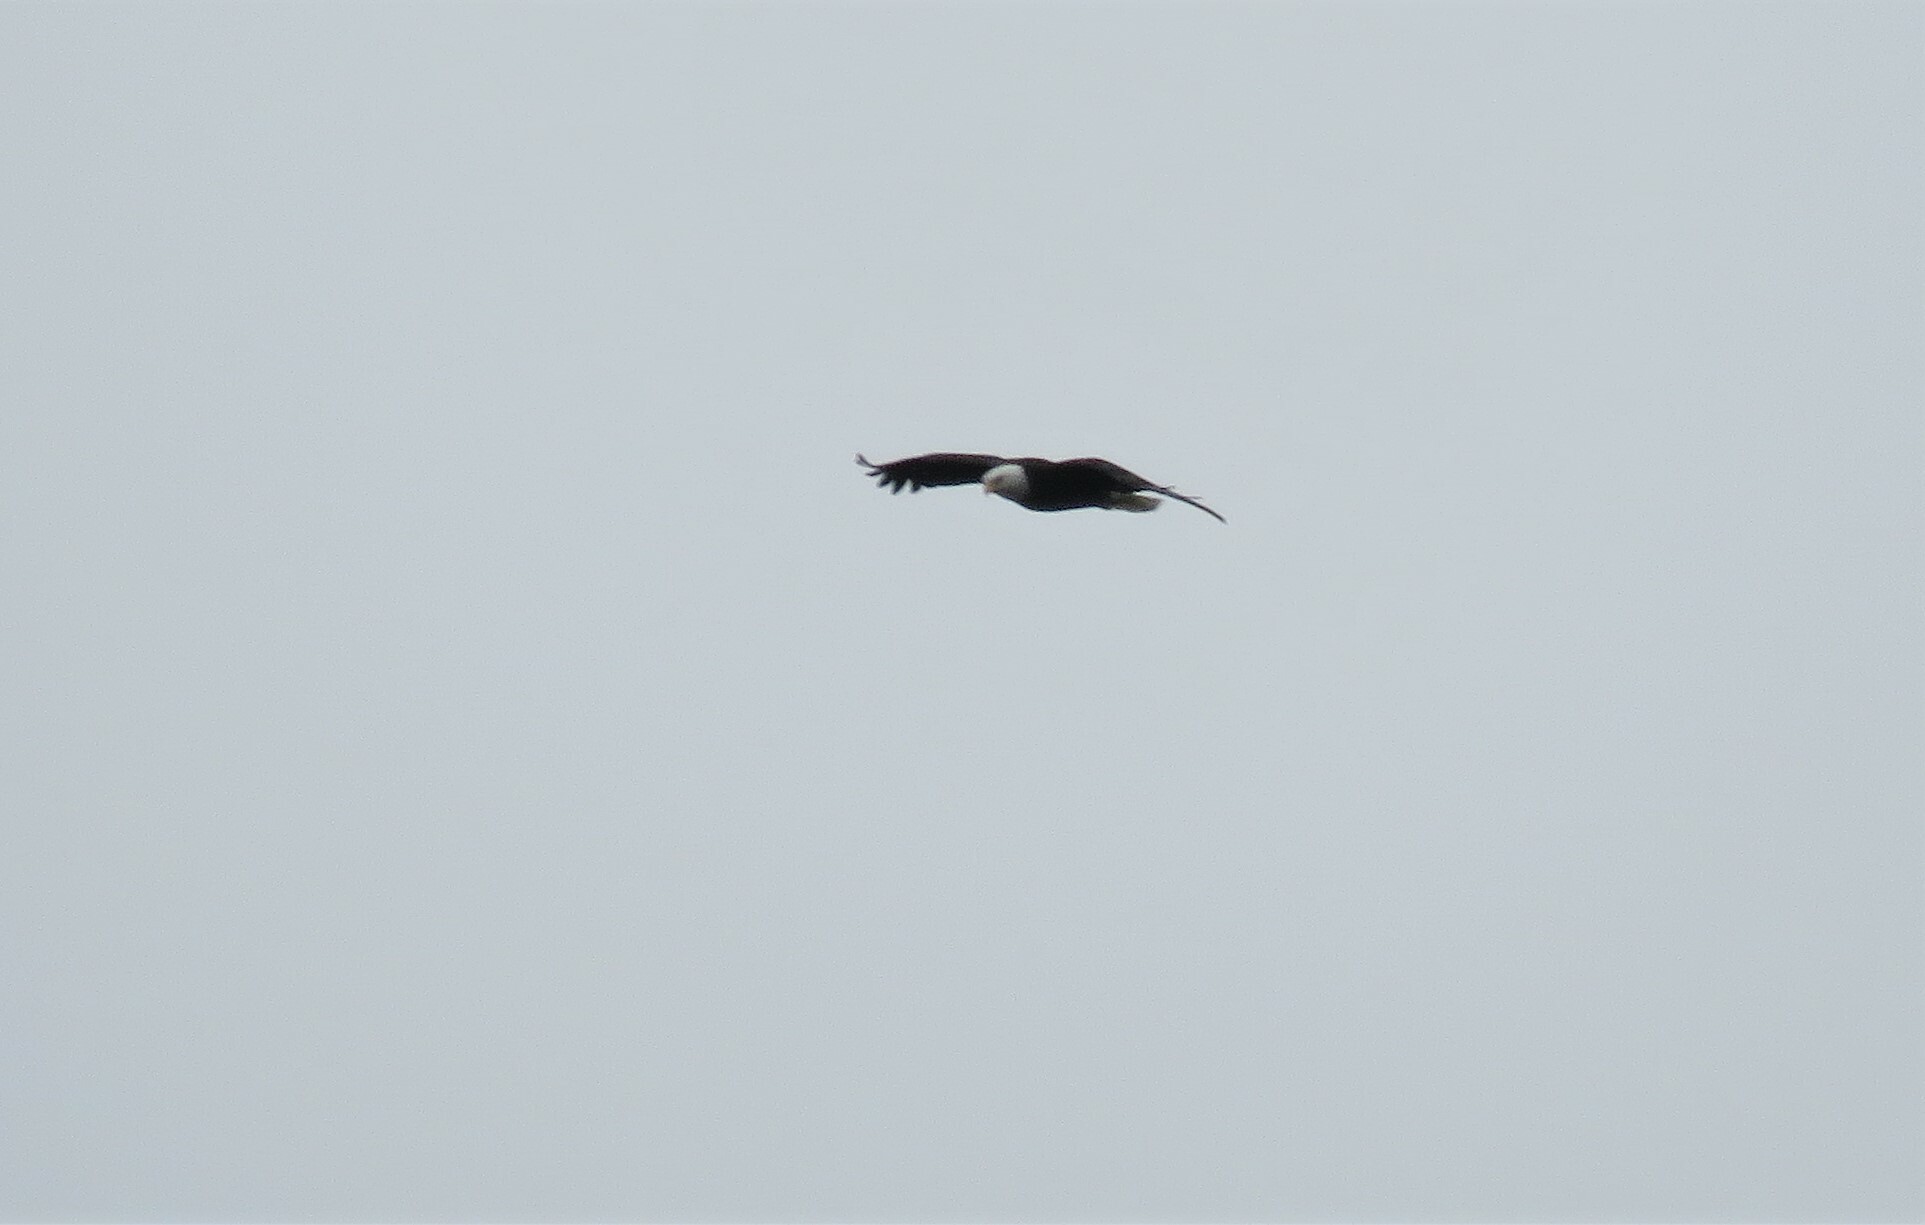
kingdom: Animalia
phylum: Chordata
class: Aves
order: Accipitriformes
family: Accipitridae
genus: Haliaeetus
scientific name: Haliaeetus leucocephalus
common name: Bald eagle
